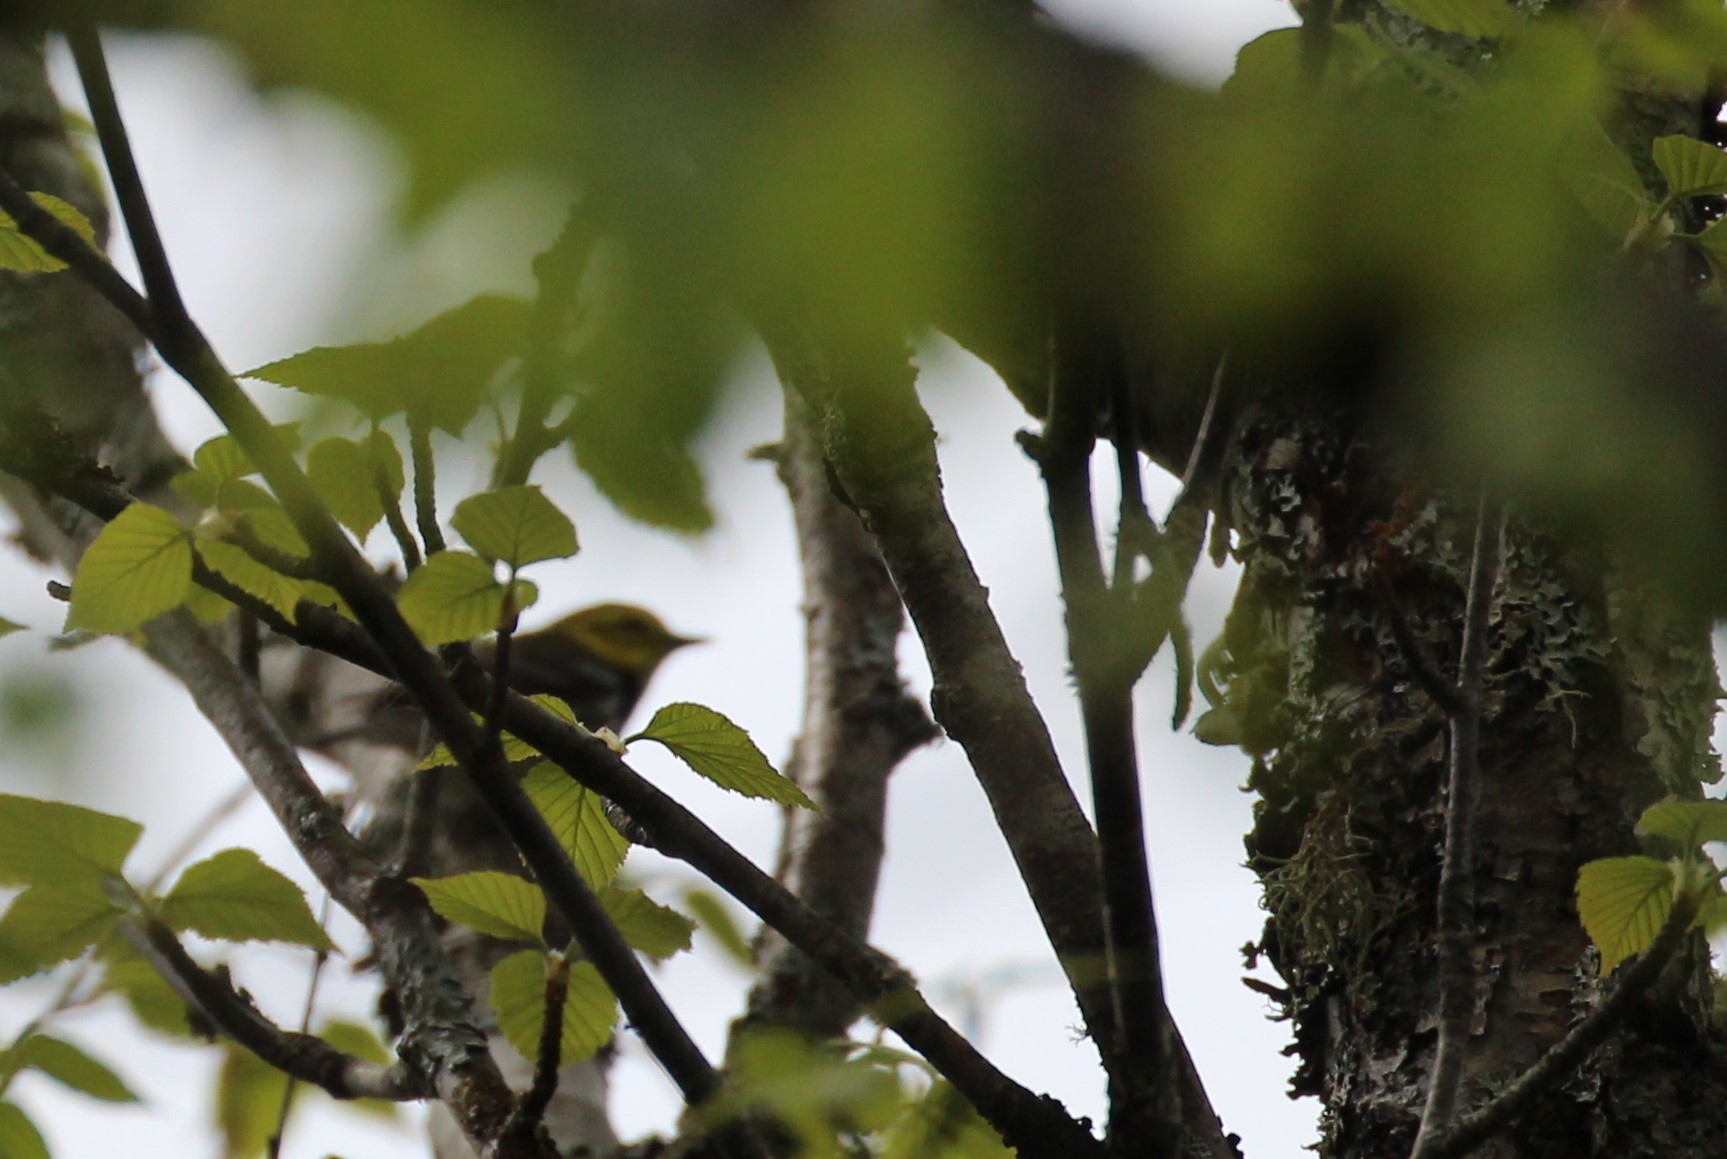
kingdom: Animalia
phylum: Chordata
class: Aves
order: Passeriformes
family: Parulidae
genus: Setophaga
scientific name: Setophaga virens
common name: Black-throated green warbler
